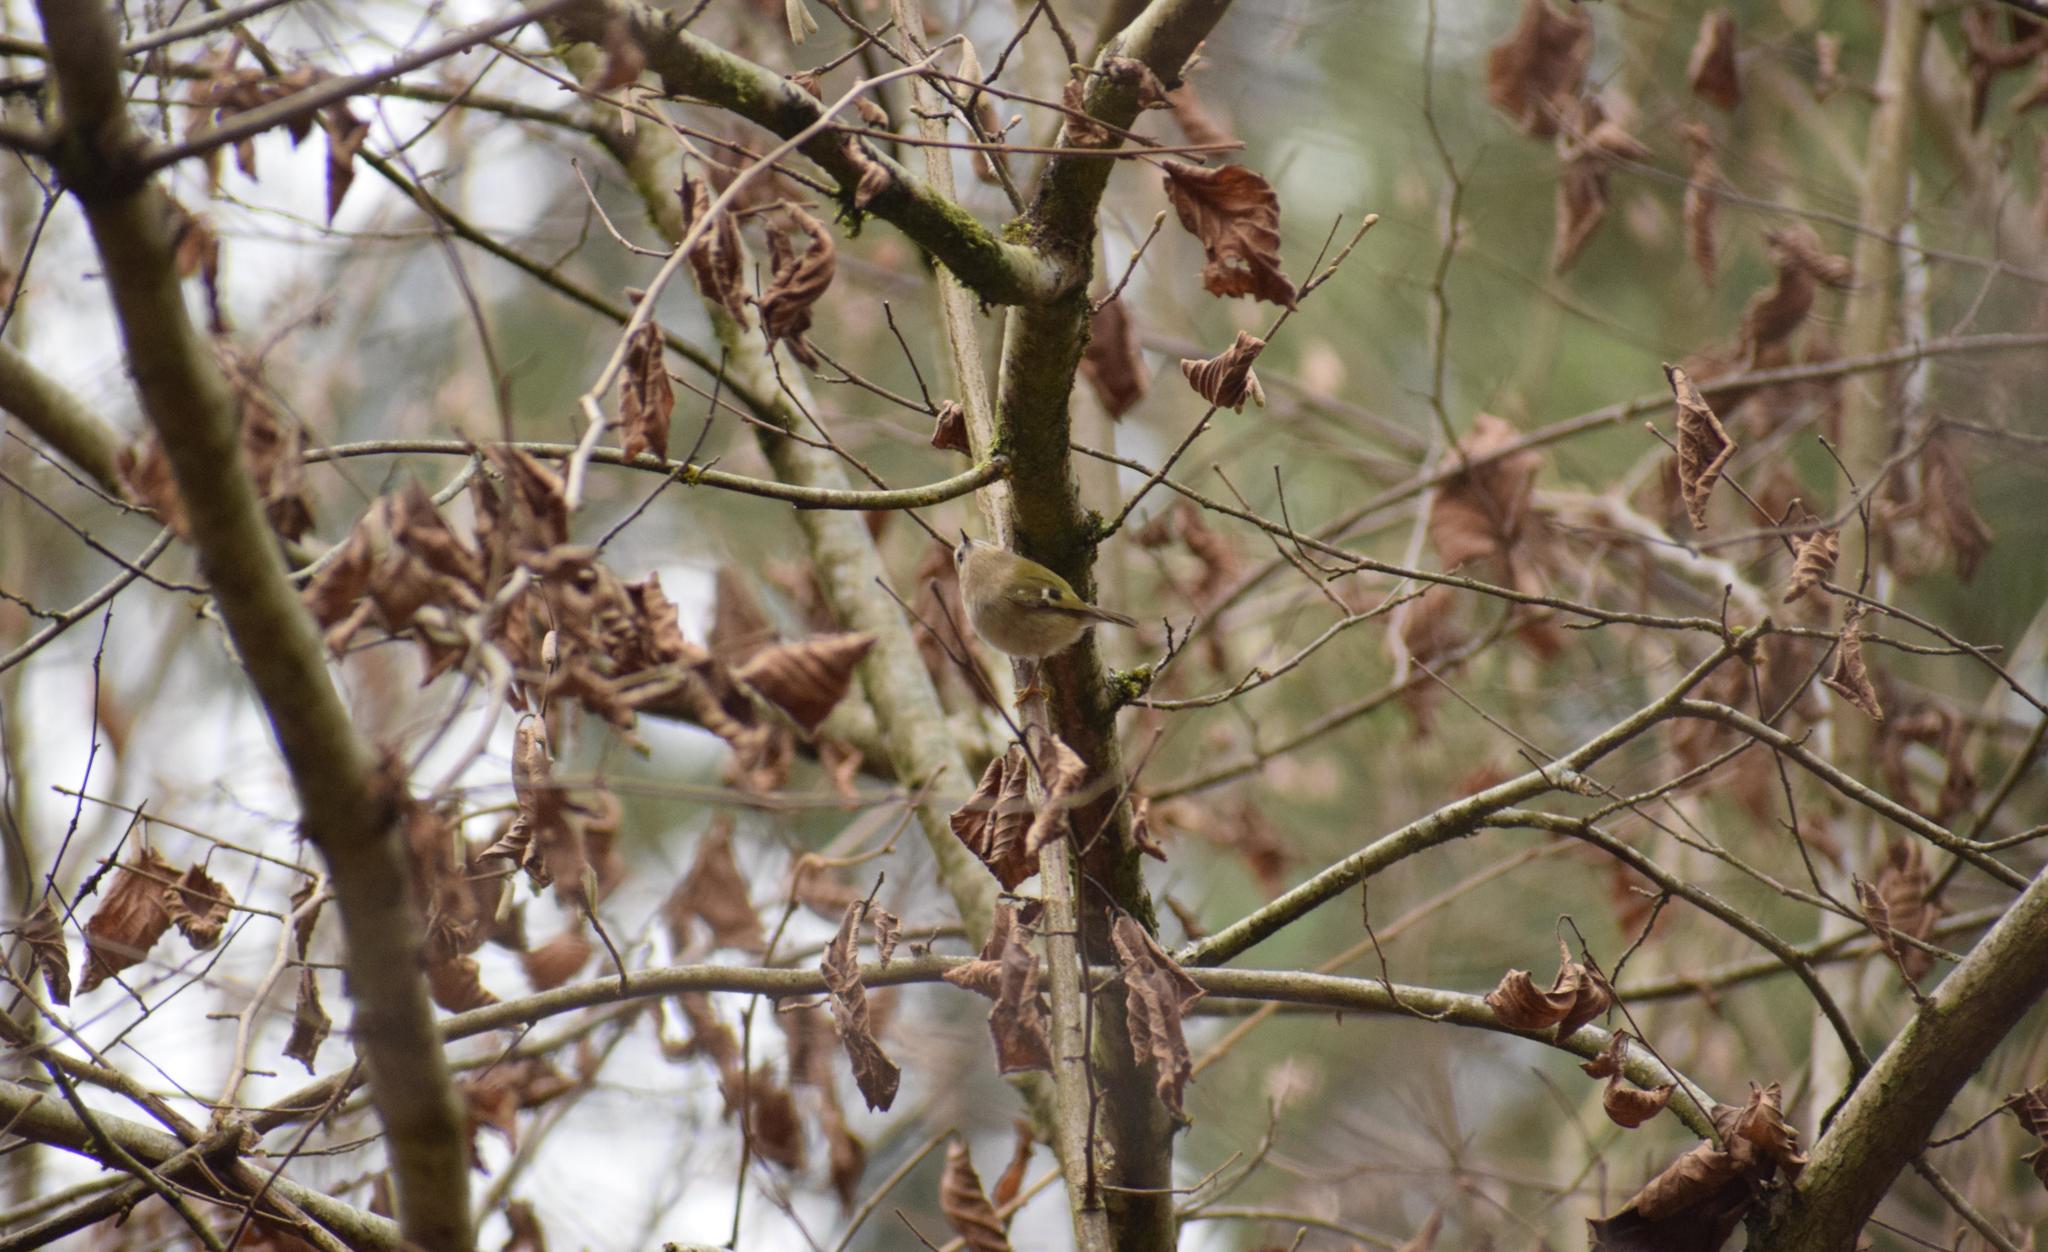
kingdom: Animalia
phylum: Chordata
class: Aves
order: Passeriformes
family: Regulidae
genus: Regulus
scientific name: Regulus regulus
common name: Goldcrest
